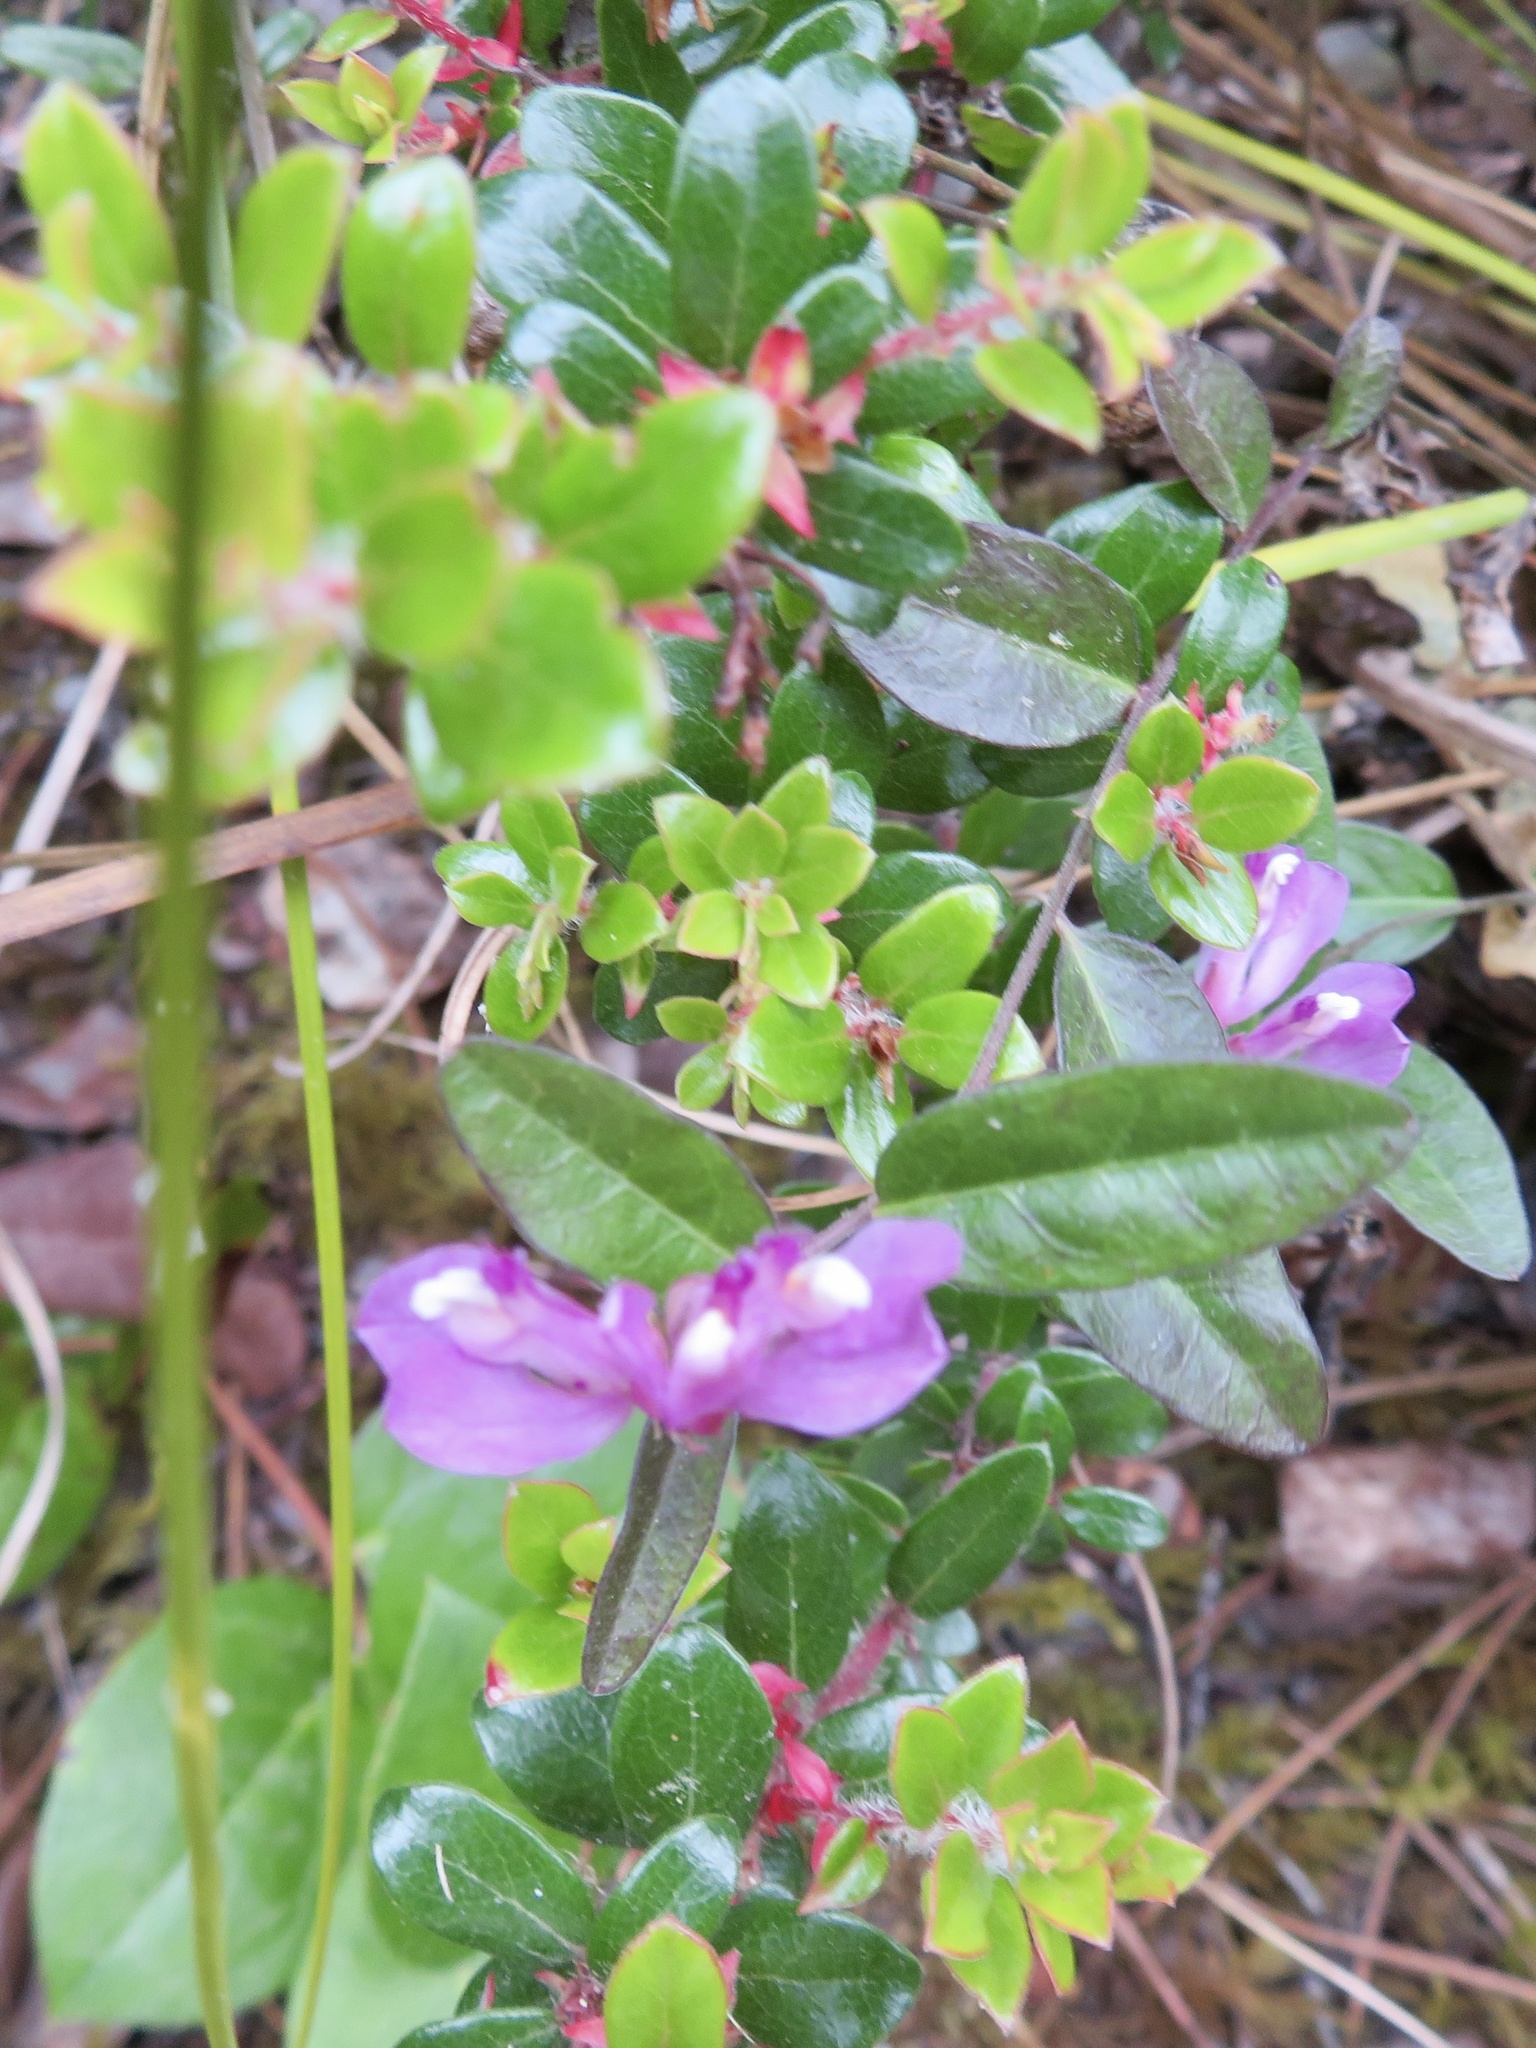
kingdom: Plantae
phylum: Tracheophyta
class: Magnoliopsida
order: Fabales
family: Polygalaceae
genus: Rhinotropis
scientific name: Rhinotropis californica
